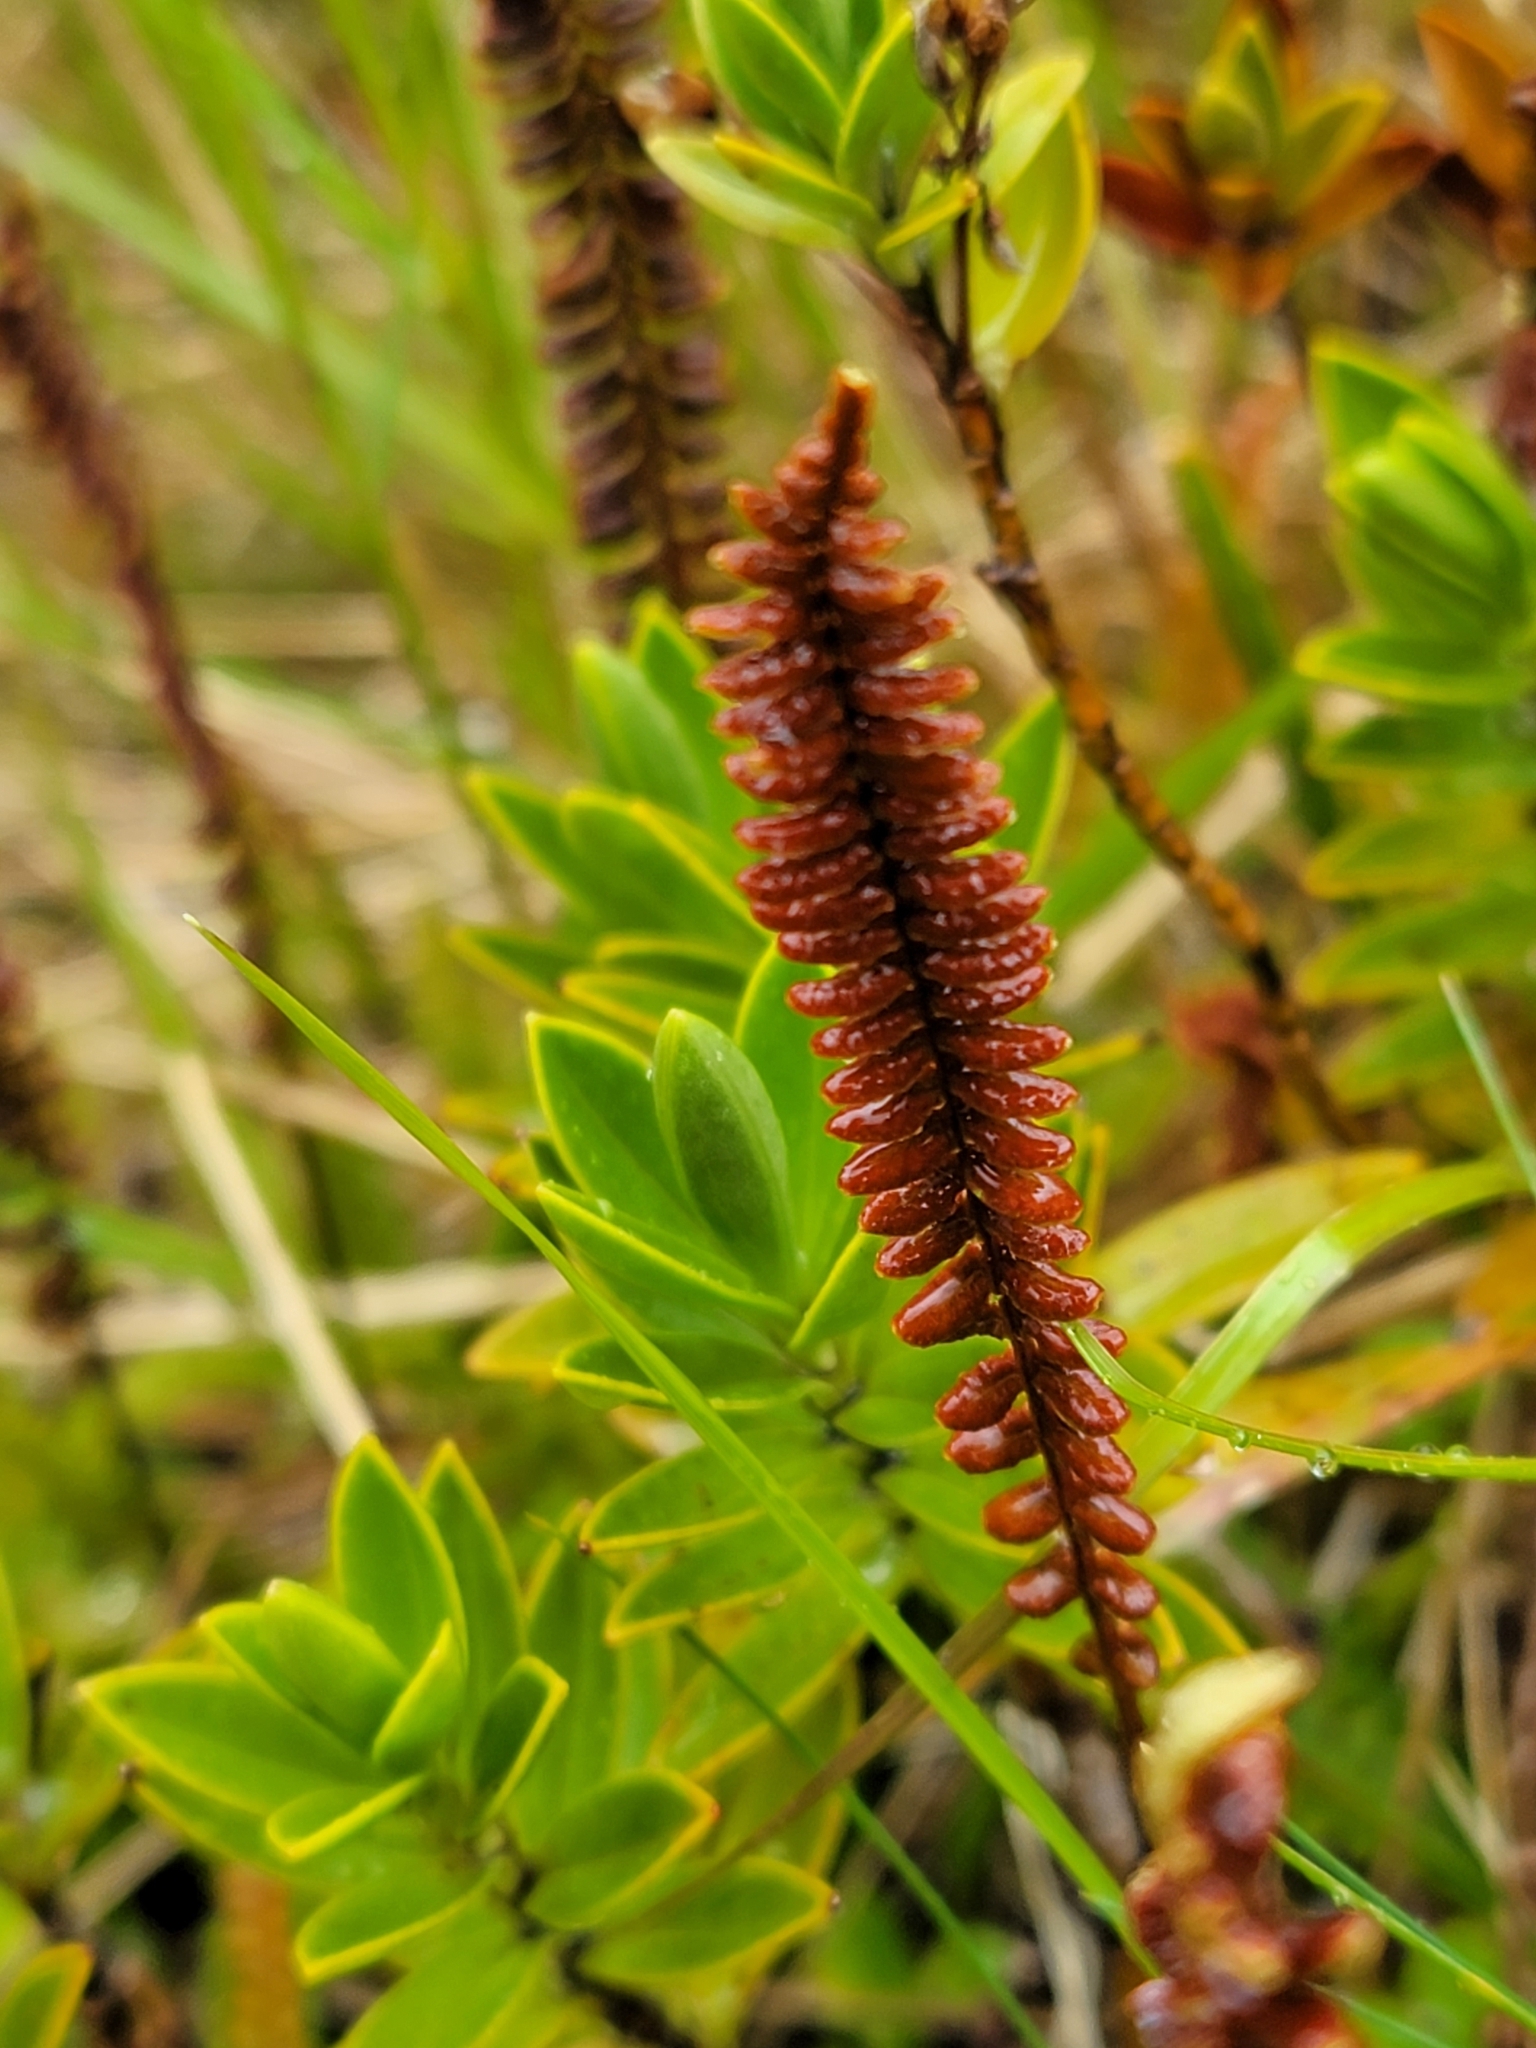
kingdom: Plantae
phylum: Tracheophyta
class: Magnoliopsida
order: Lamiales
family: Plantaginaceae
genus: Veronica
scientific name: Veronica odora
